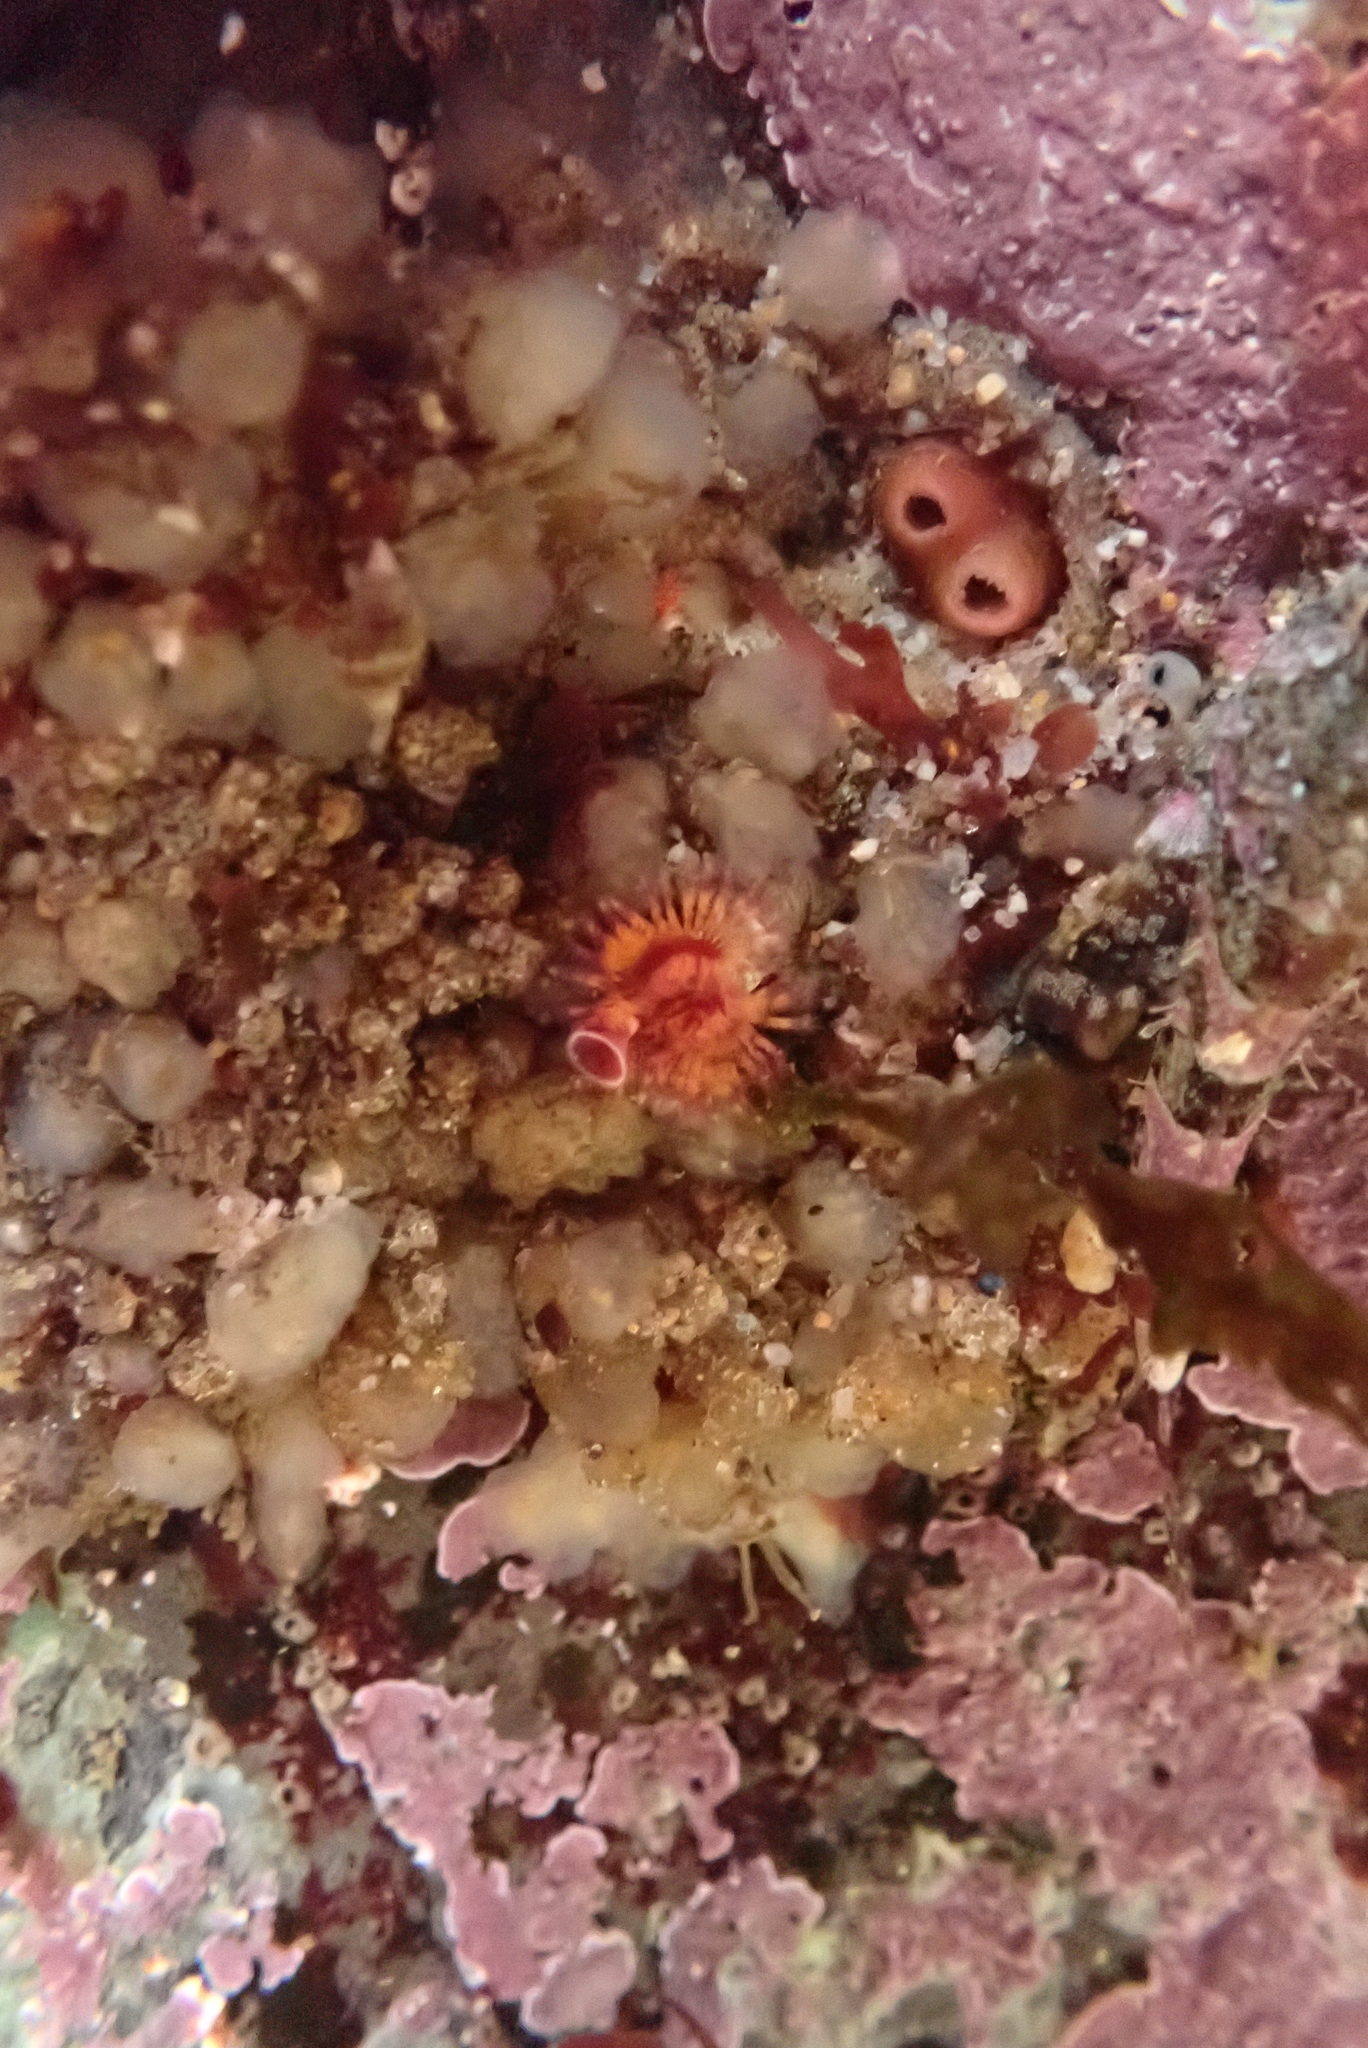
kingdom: Animalia
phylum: Annelida
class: Polychaeta
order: Sabellida
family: Serpulidae
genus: Serpula
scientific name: Serpula columbiana
